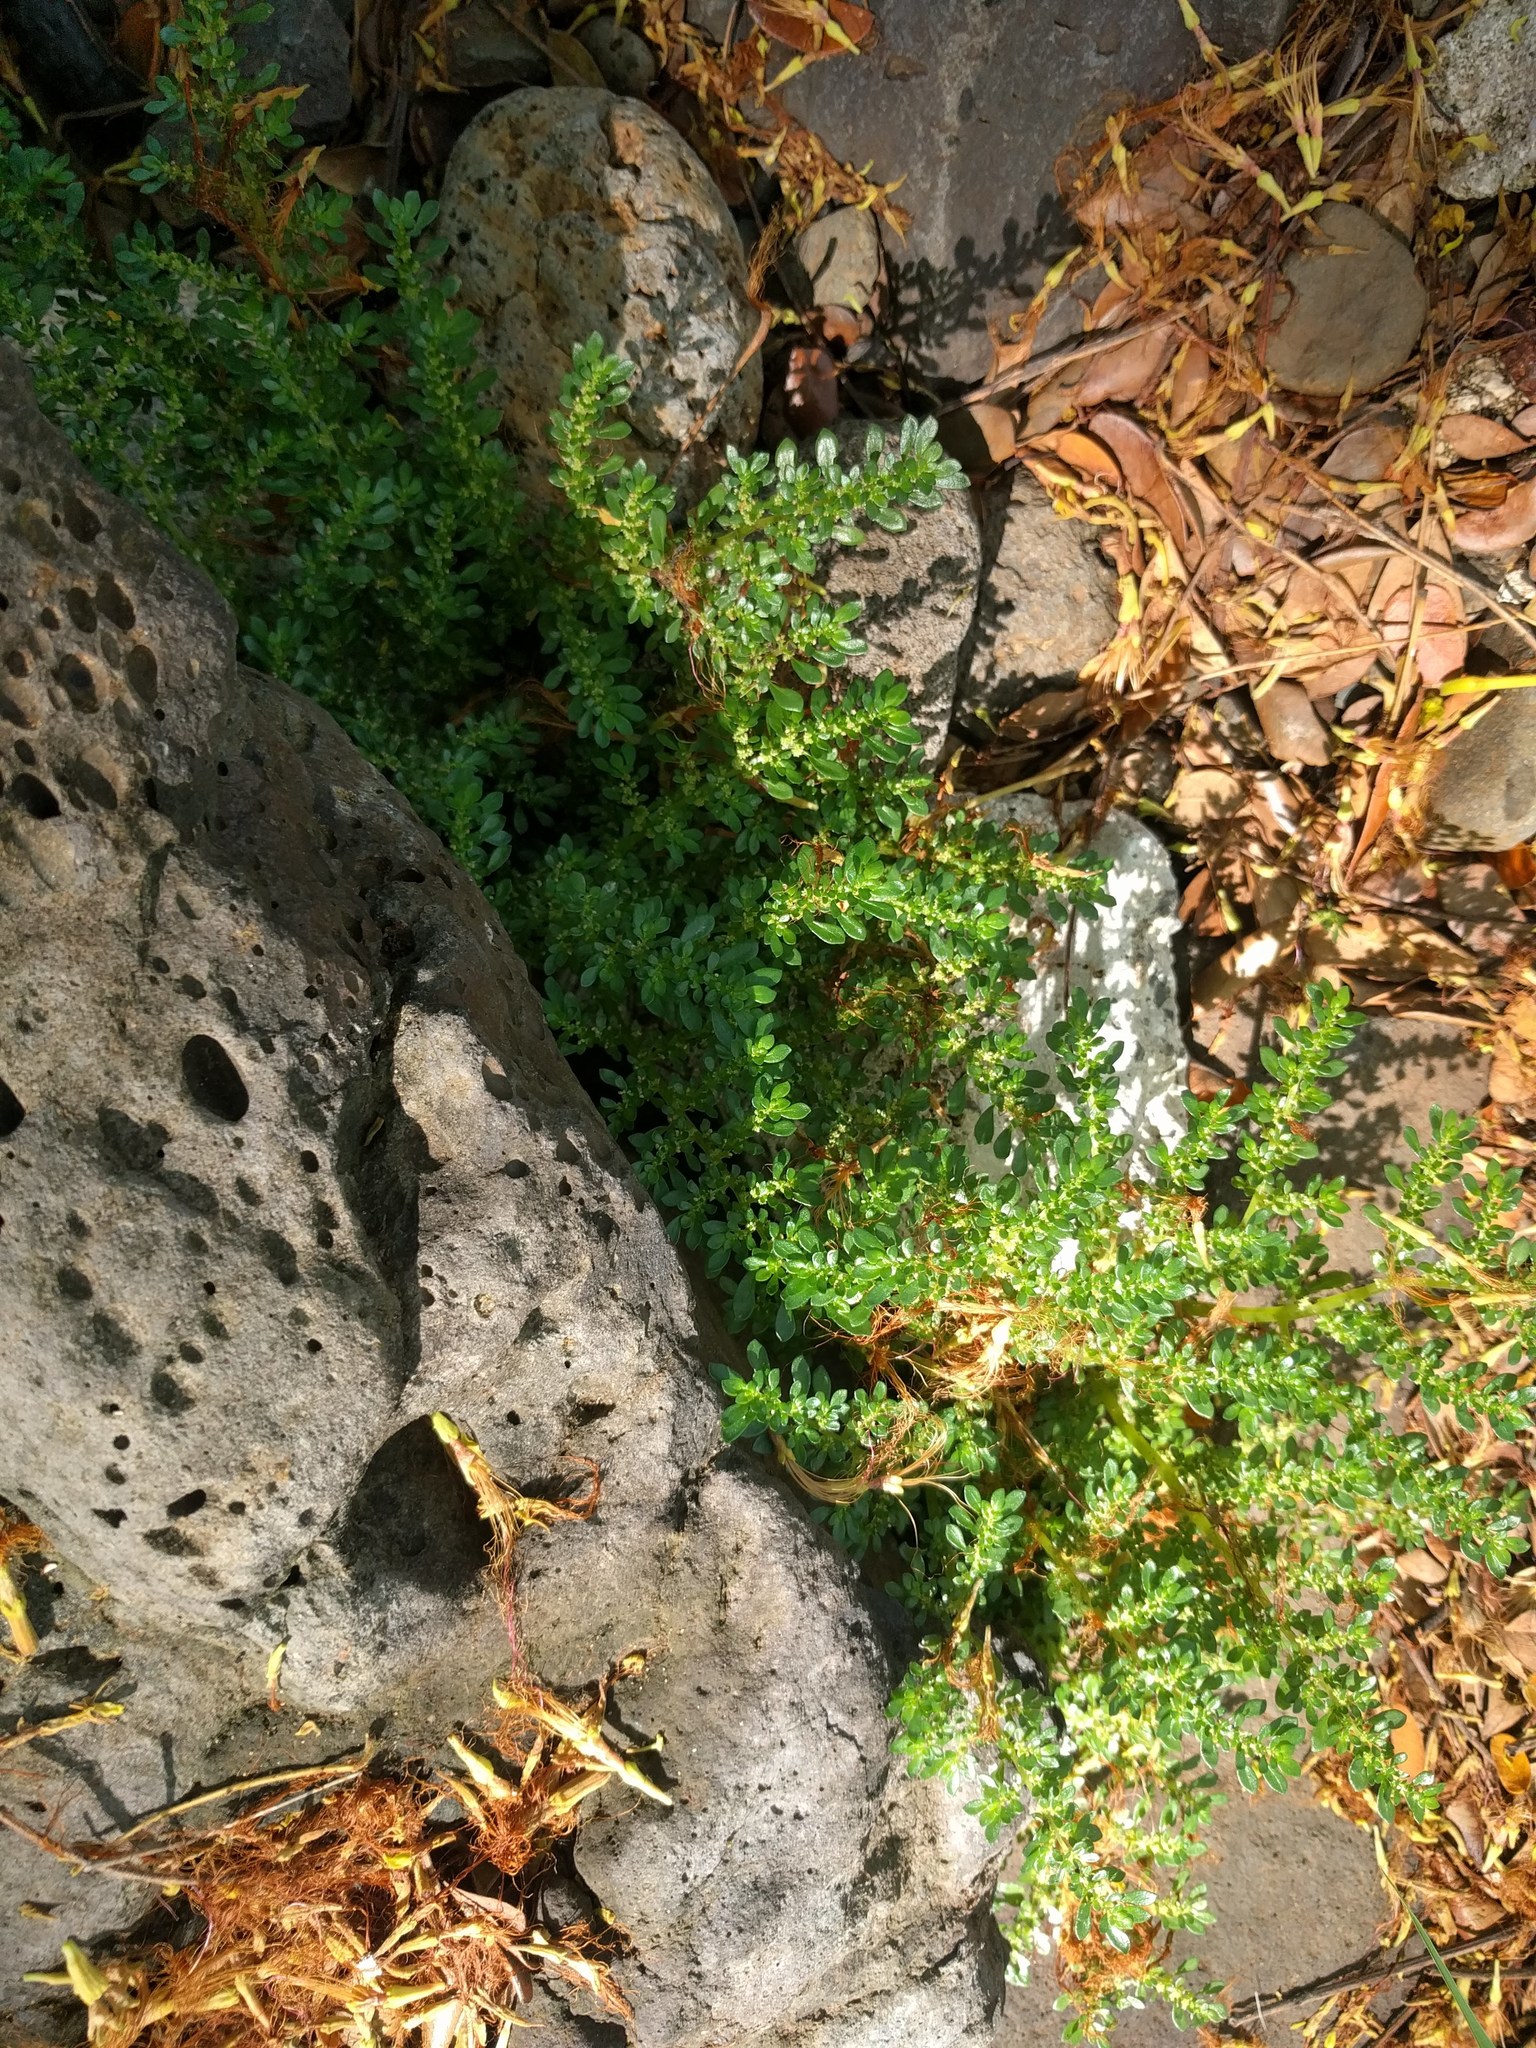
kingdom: Plantae
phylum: Tracheophyta
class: Magnoliopsida
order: Rosales
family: Urticaceae
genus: Pilea
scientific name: Pilea microphylla
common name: Artillery-plant
